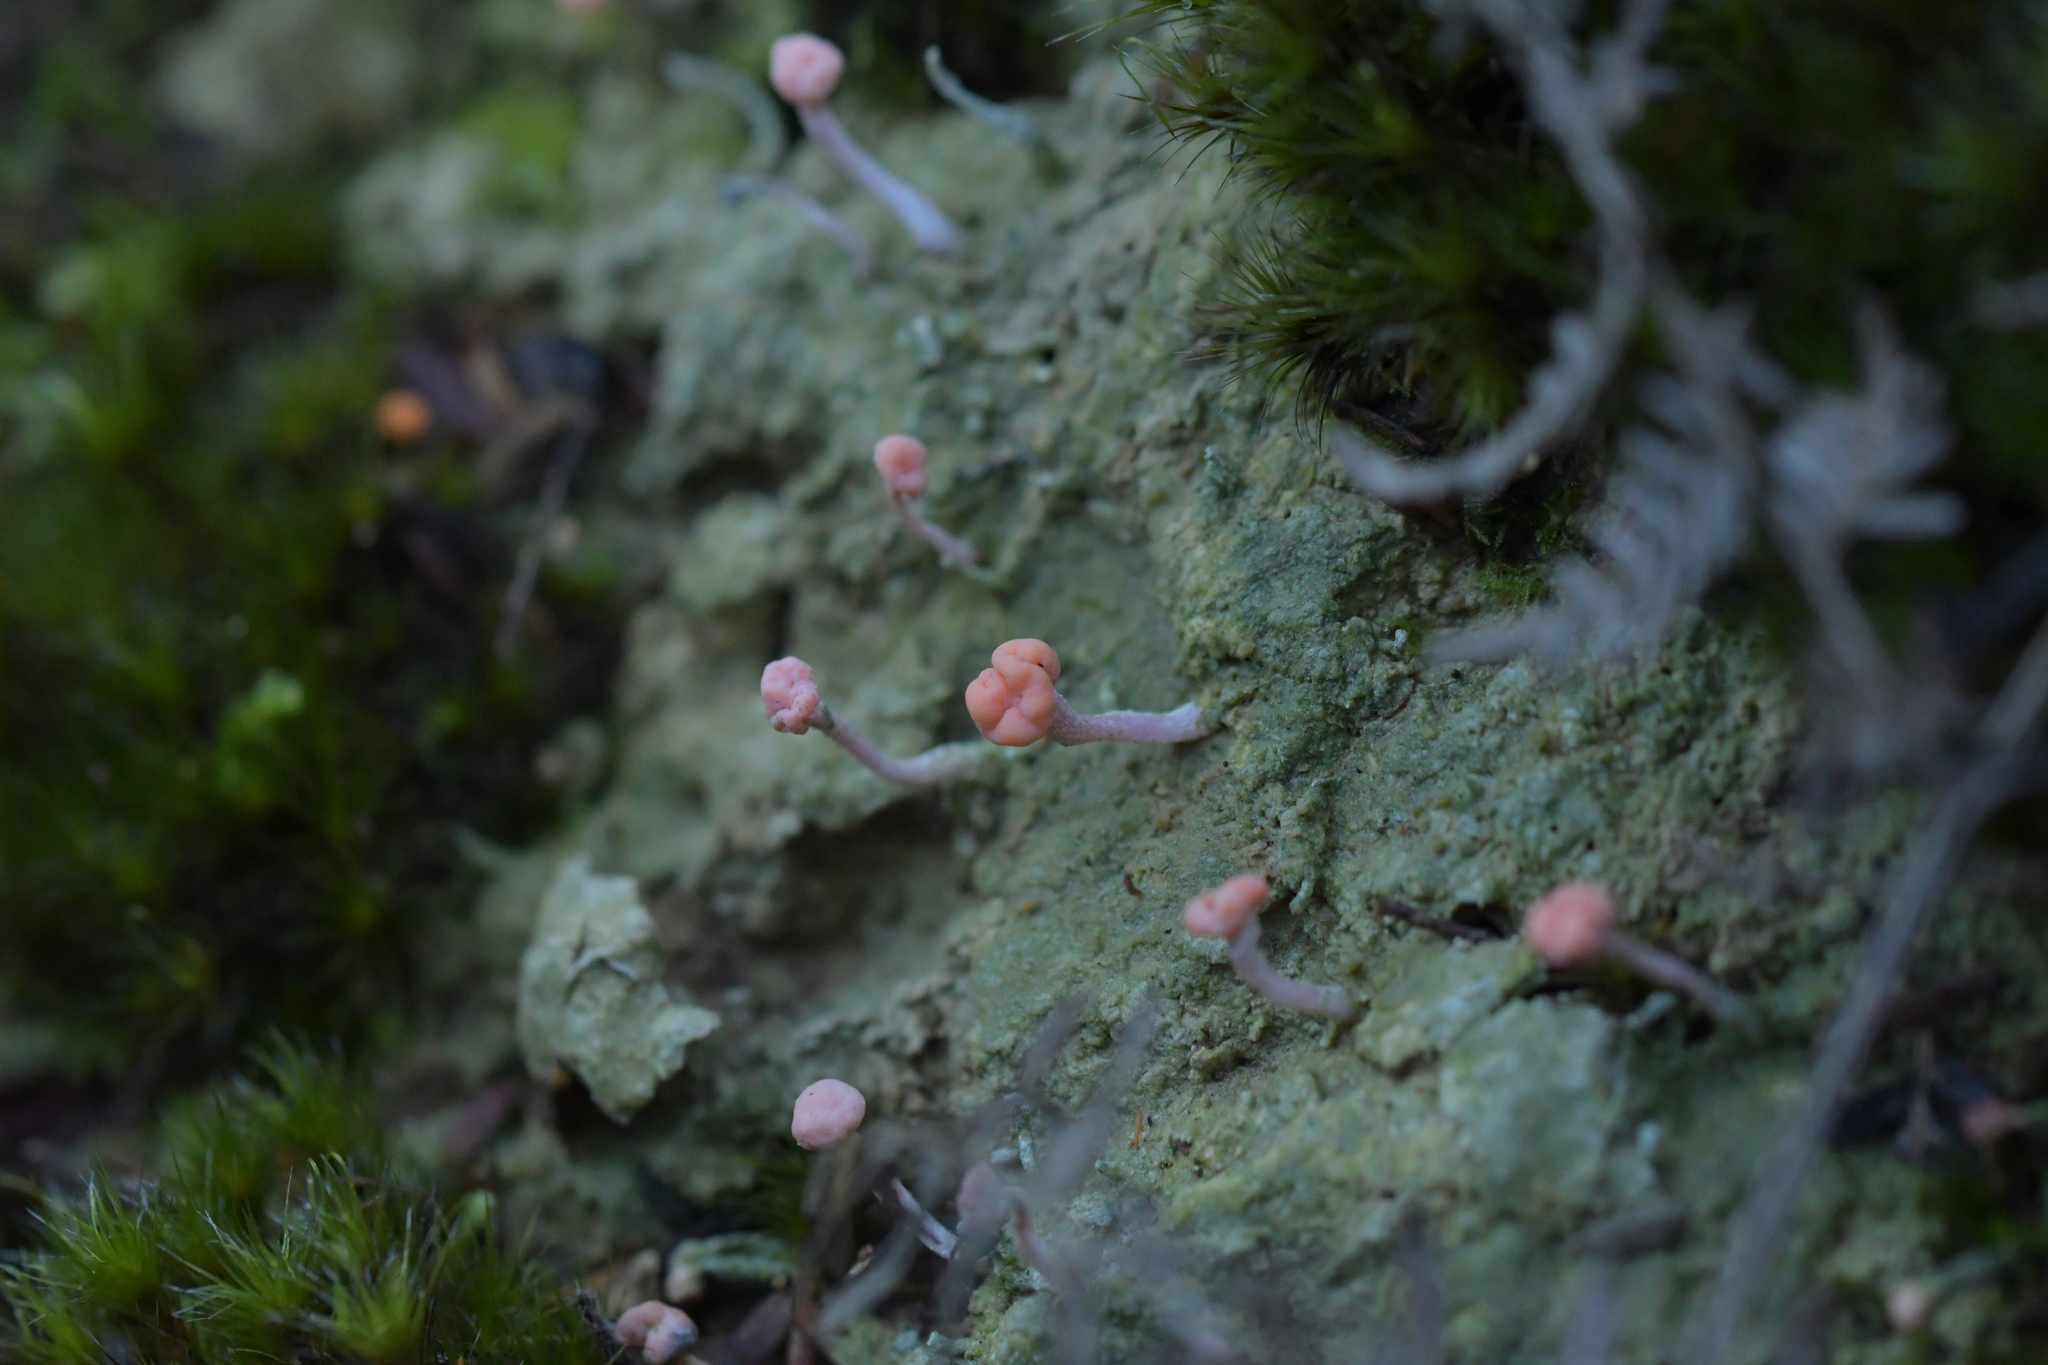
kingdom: Fungi
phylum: Ascomycota
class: Lecanoromycetes
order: Pertusariales
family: Icmadophilaceae
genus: Dibaeis
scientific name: Dibaeis arcuata
